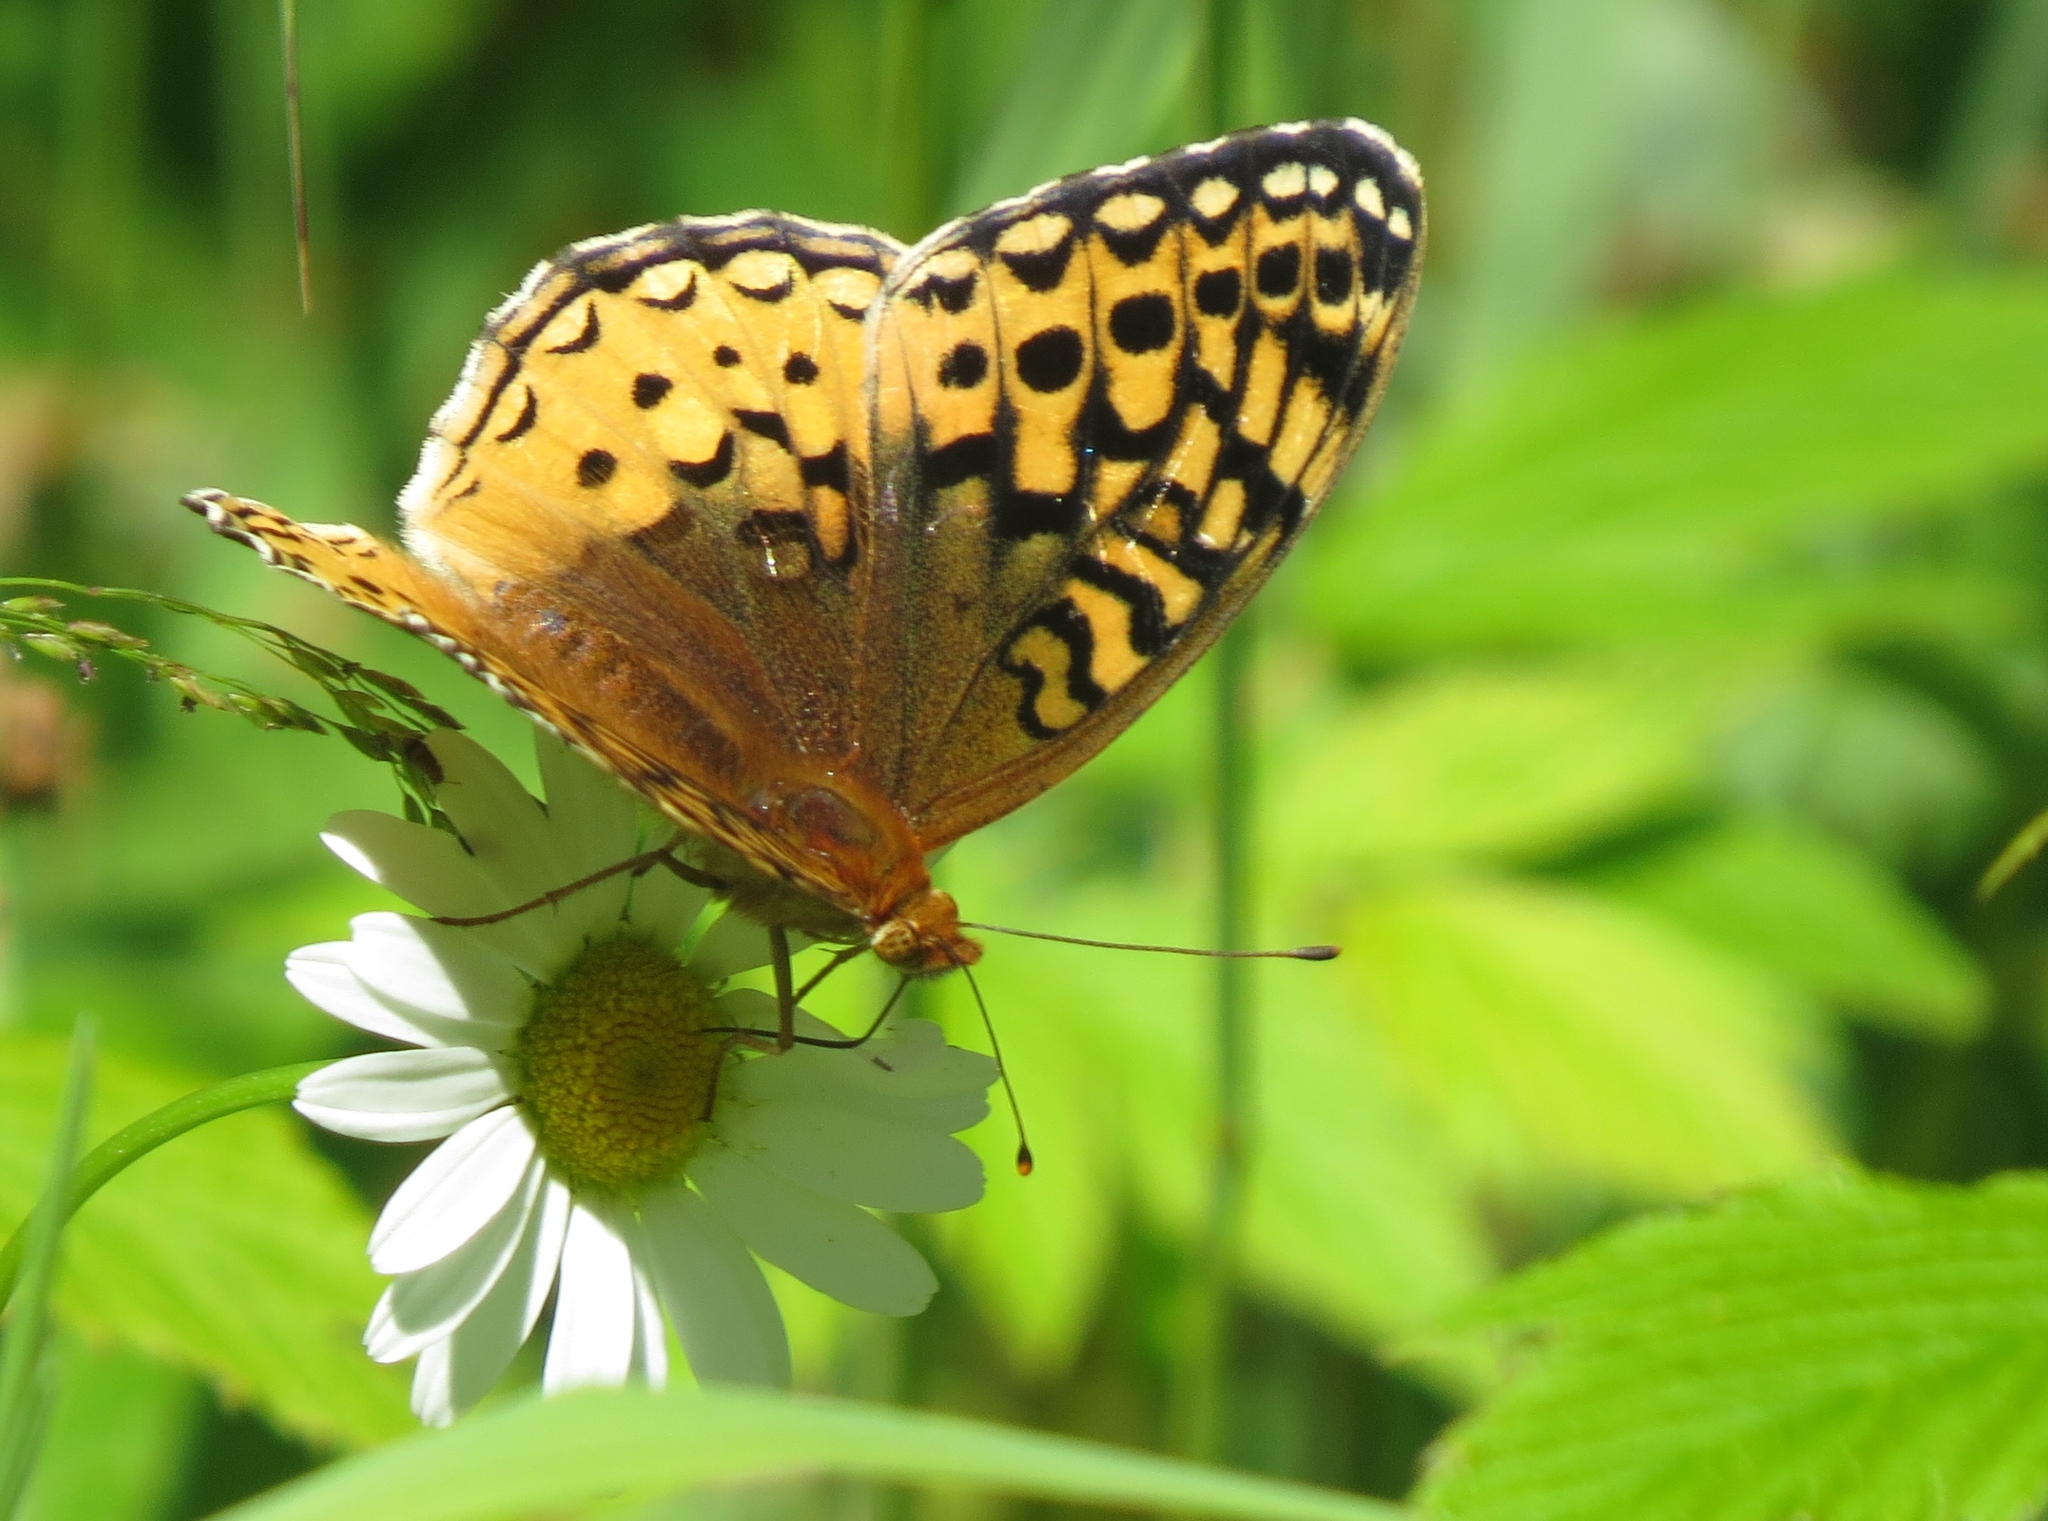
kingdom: Animalia
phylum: Arthropoda
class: Insecta
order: Lepidoptera
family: Nymphalidae
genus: Speyeria
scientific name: Speyeria cybele
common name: Great spangled fritillary
